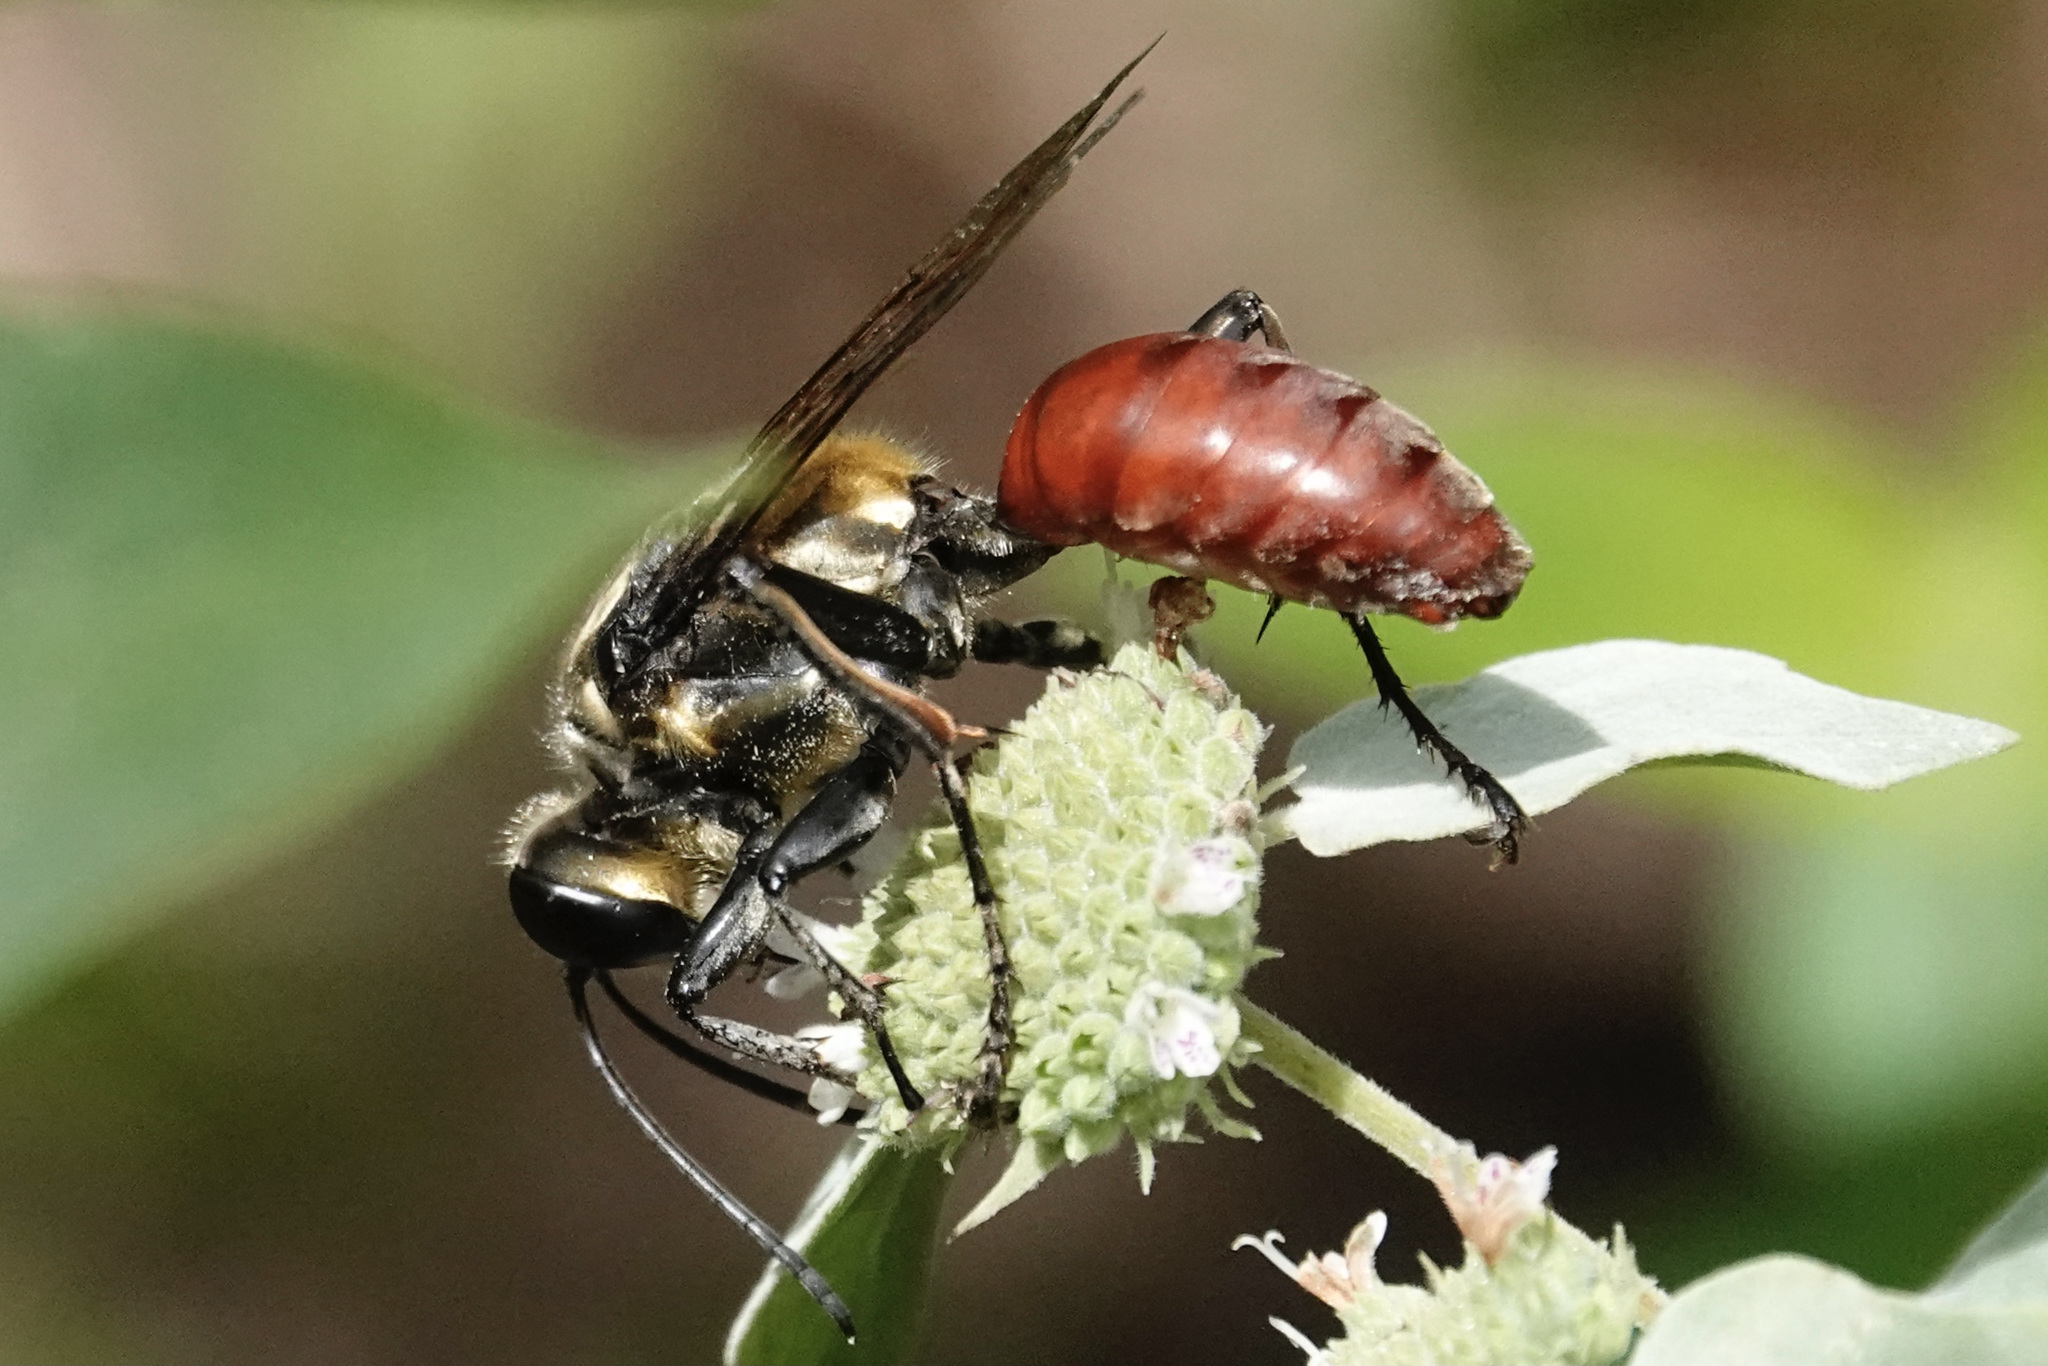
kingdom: Animalia
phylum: Arthropoda
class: Insecta
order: Hymenoptera
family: Sphecidae
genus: Sphex
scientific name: Sphex habenus
